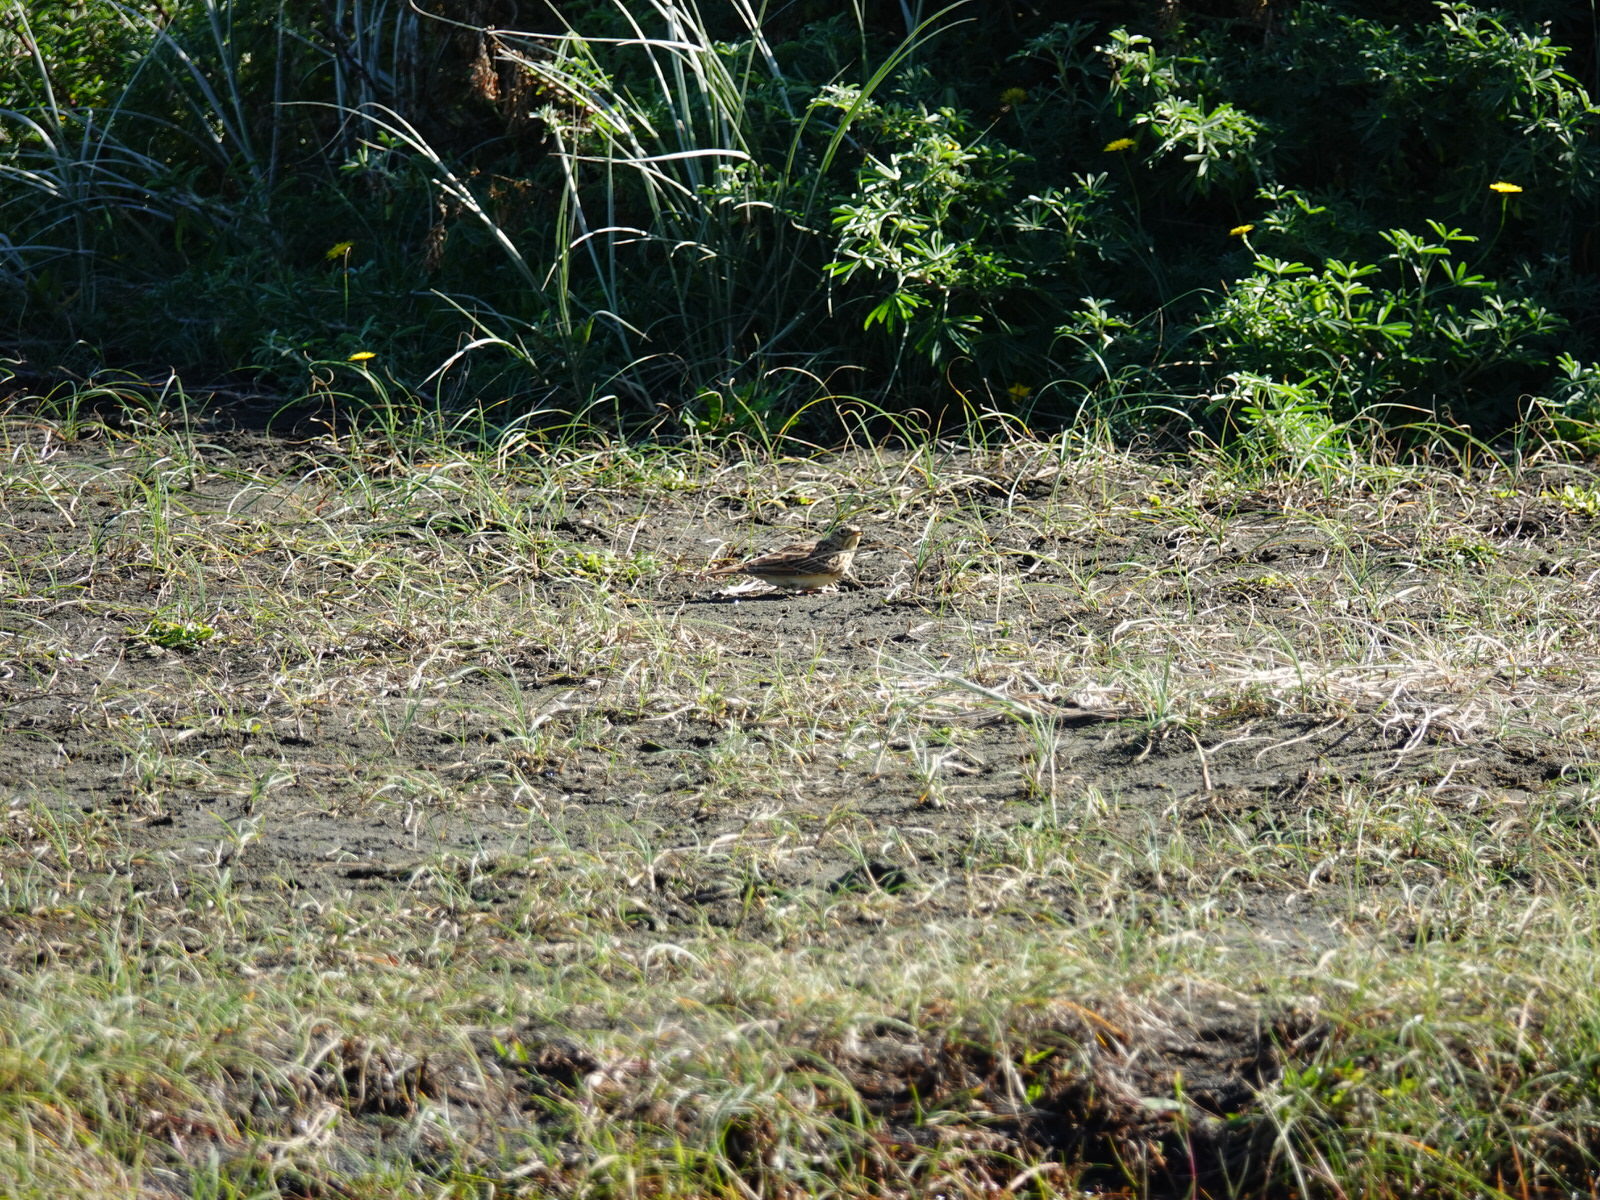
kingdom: Animalia
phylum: Chordata
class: Aves
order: Passeriformes
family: Alaudidae
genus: Alauda
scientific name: Alauda arvensis
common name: Eurasian skylark
